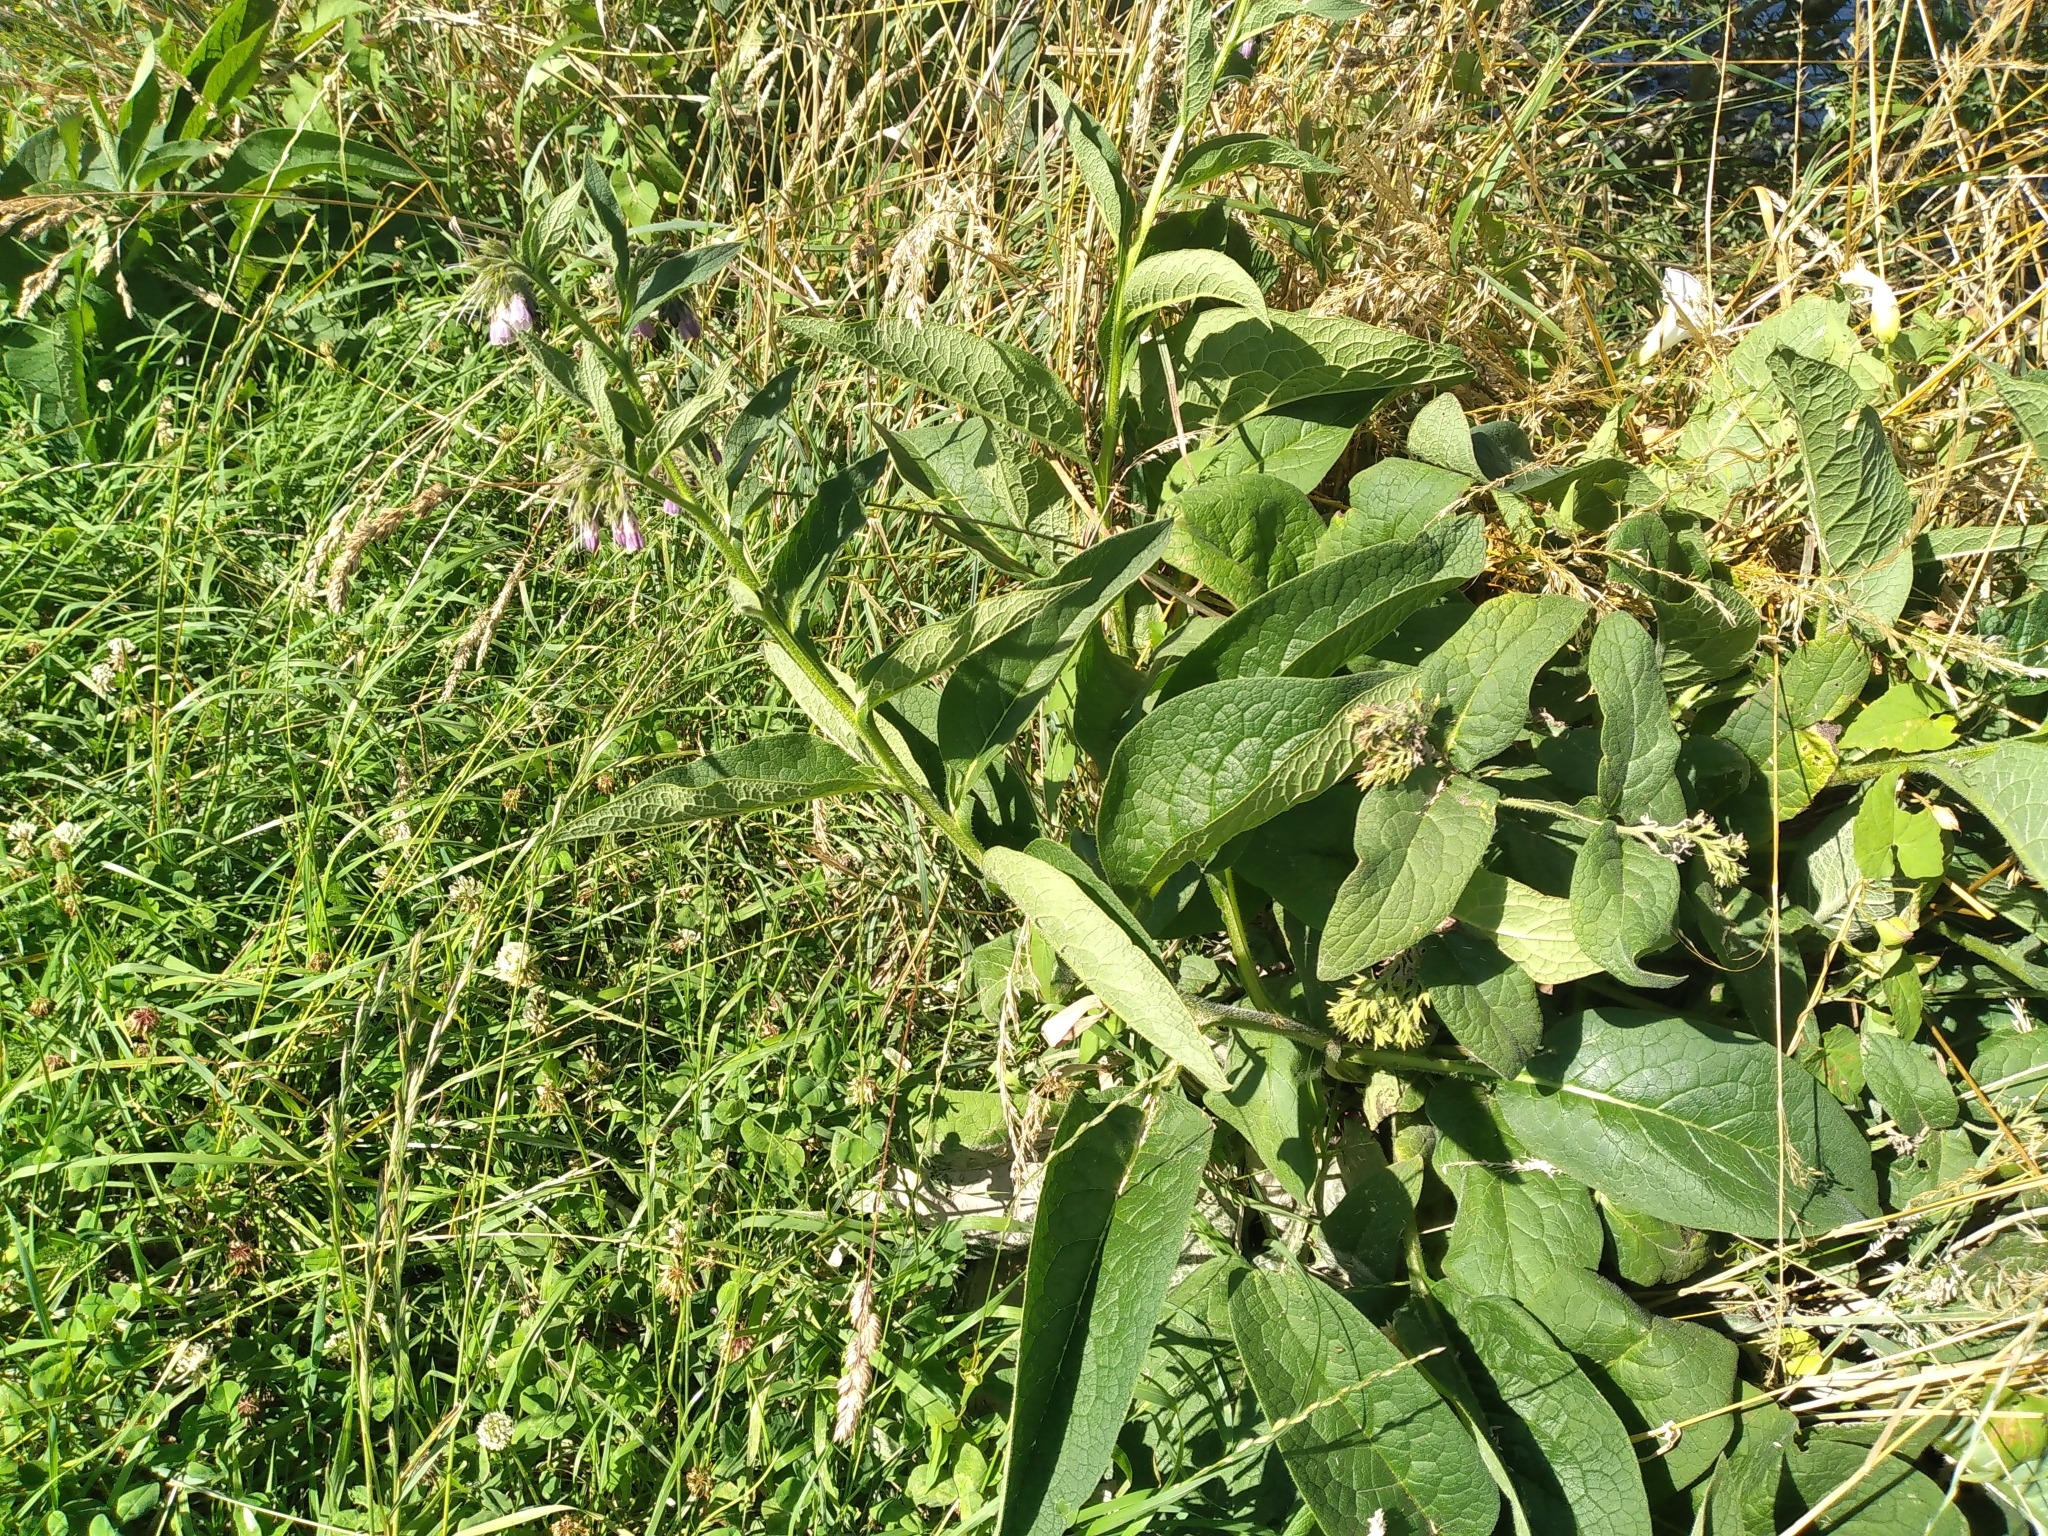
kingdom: Plantae
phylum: Tracheophyta
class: Magnoliopsida
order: Boraginales
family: Boraginaceae
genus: Symphytum
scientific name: Symphytum officinale
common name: Common comfrey
